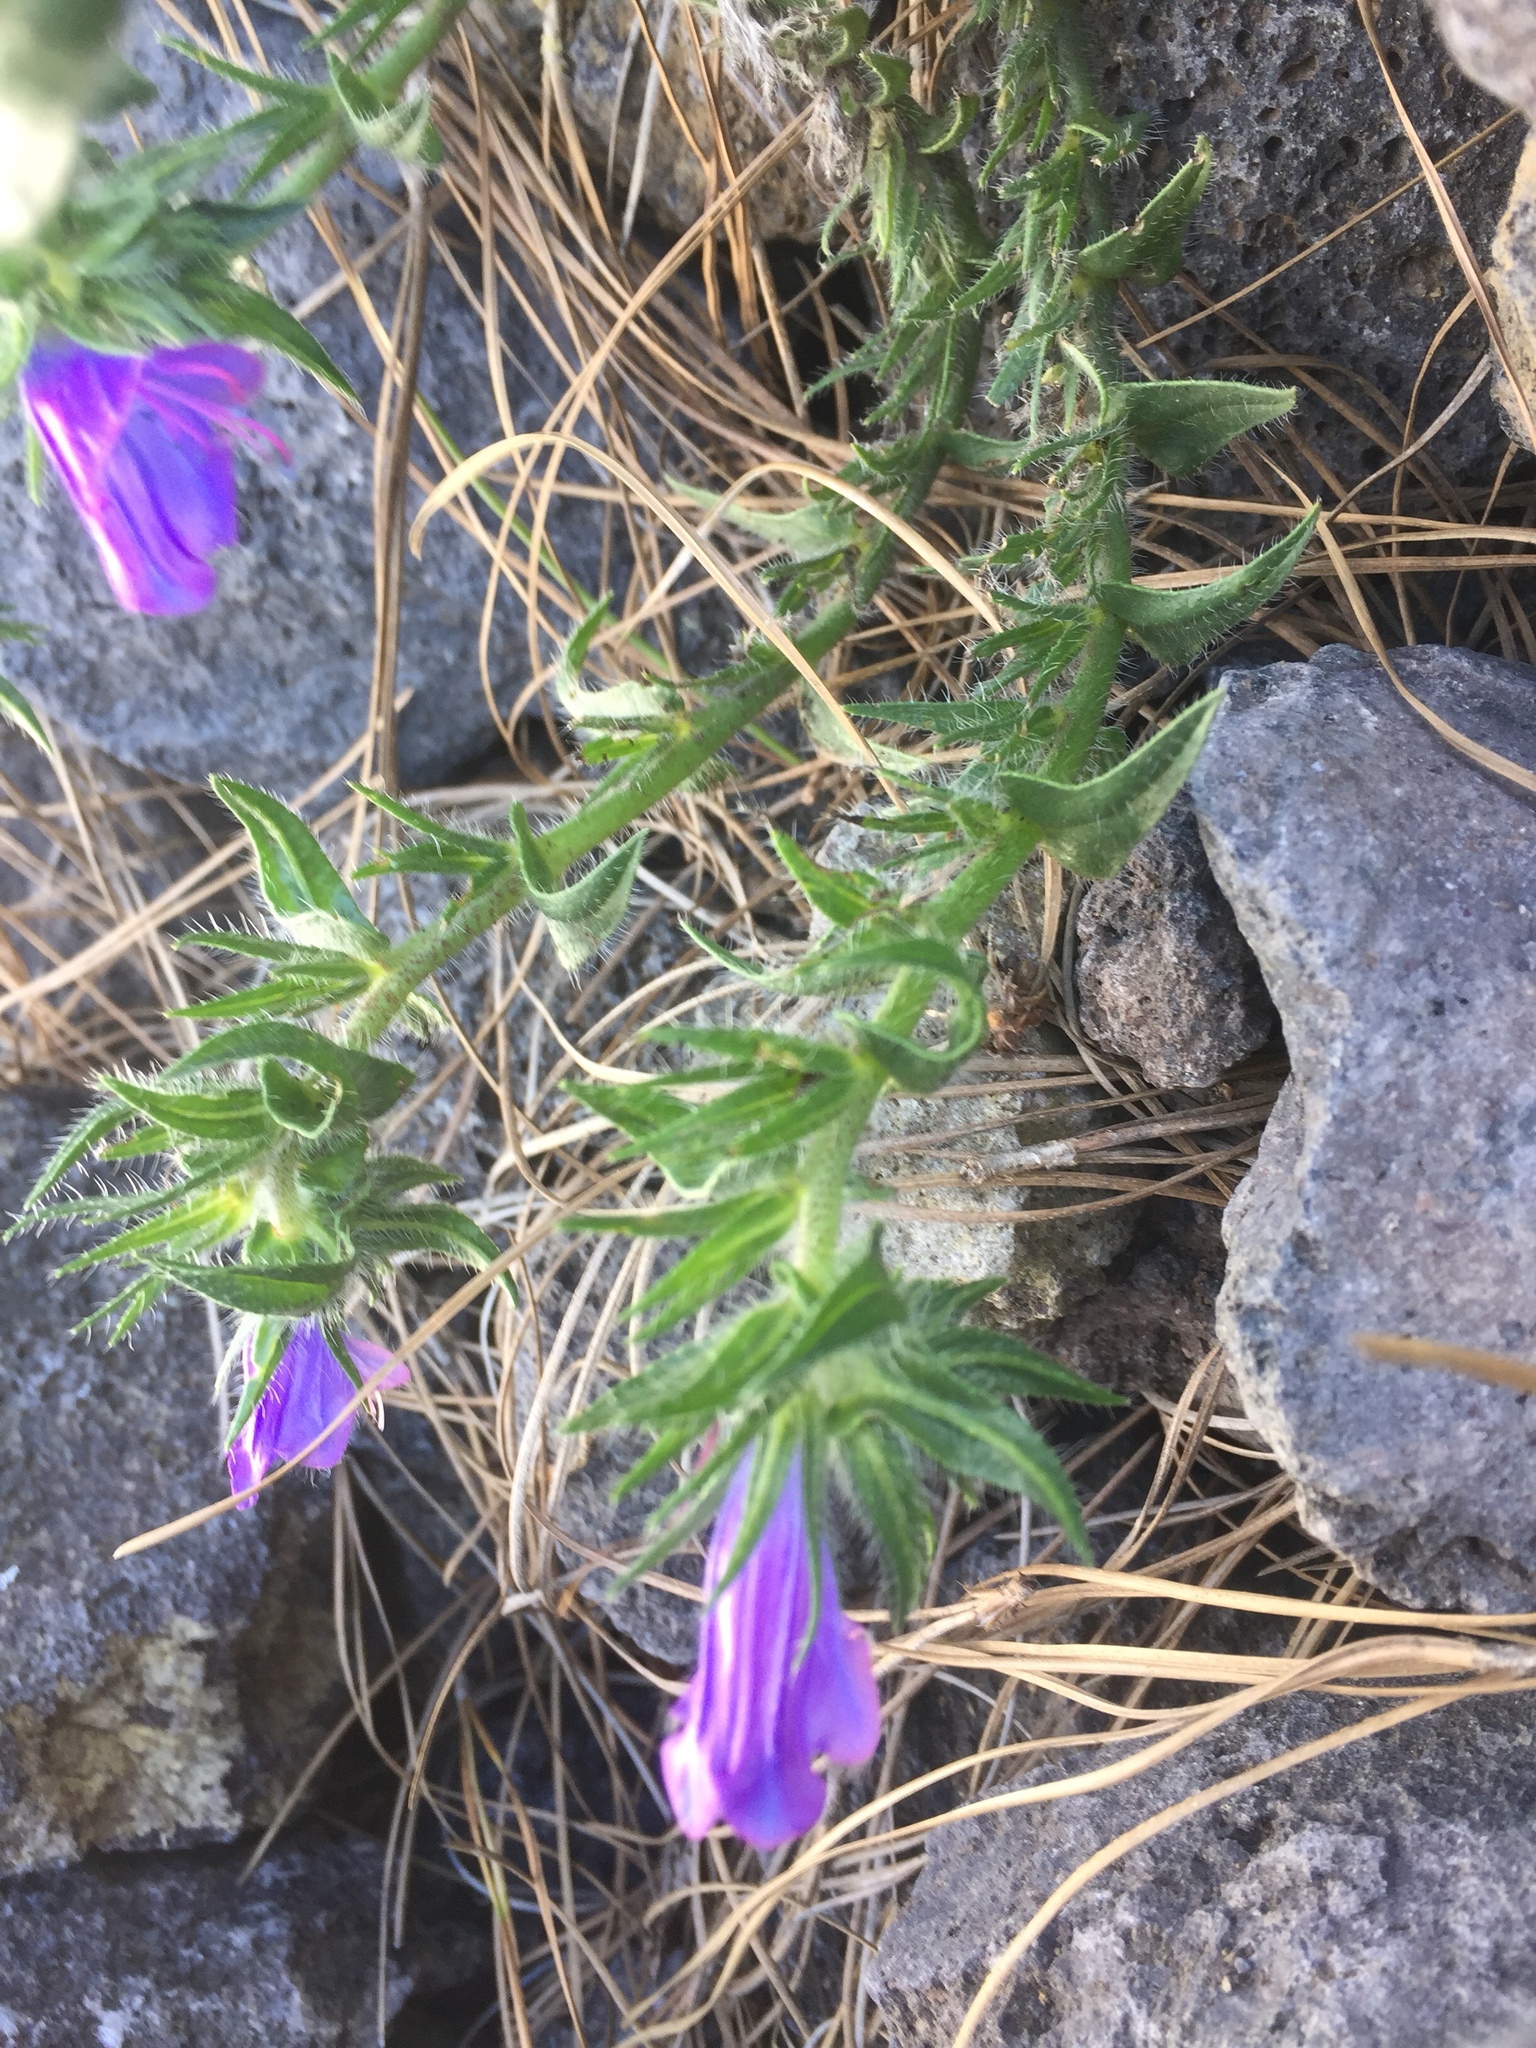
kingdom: Plantae
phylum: Tracheophyta
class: Magnoliopsida
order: Boraginales
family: Boraginaceae
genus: Echium
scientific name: Echium plantagineum
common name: Purple viper's-bugloss
